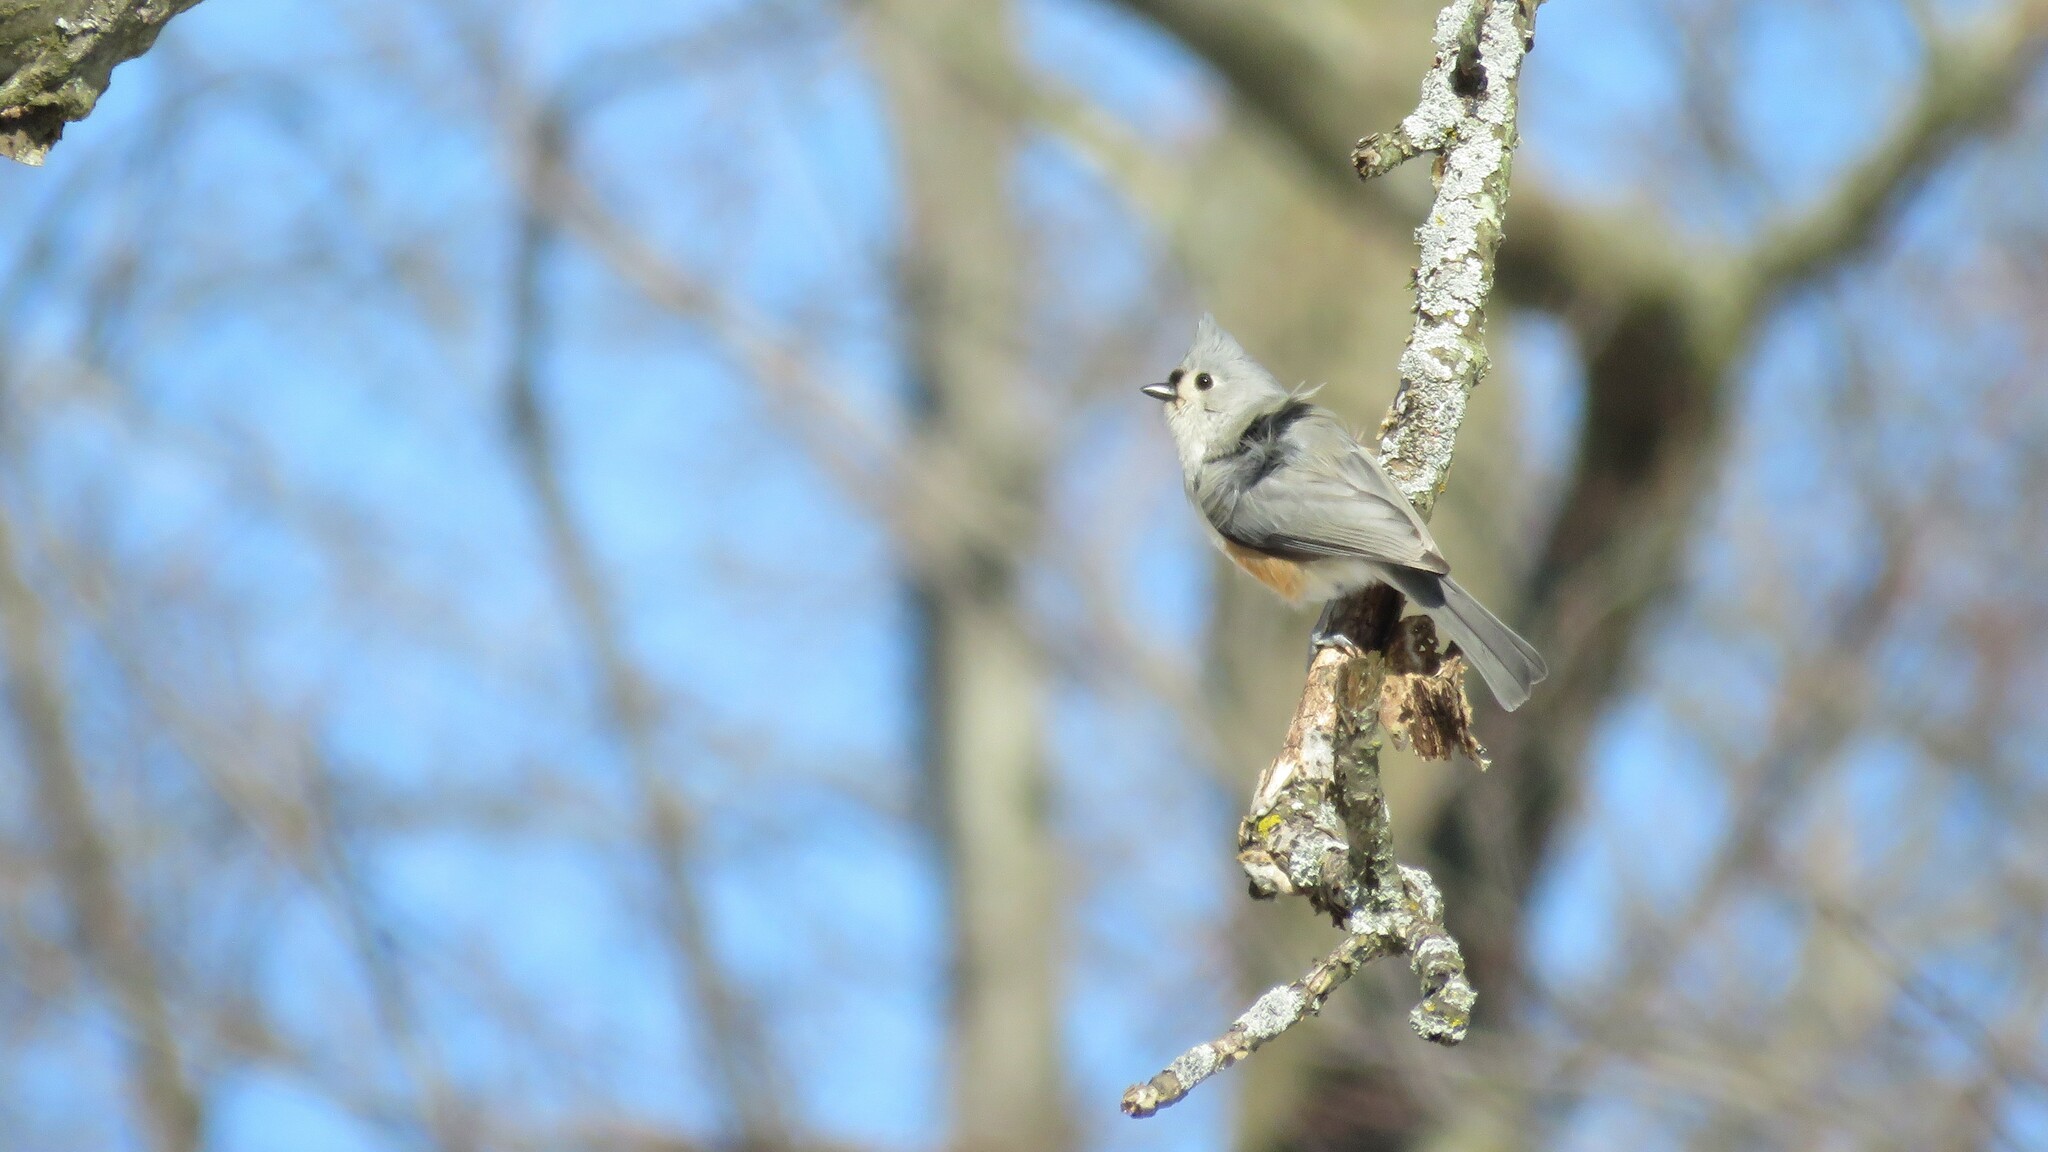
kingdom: Animalia
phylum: Chordata
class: Aves
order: Passeriformes
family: Paridae
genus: Baeolophus
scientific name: Baeolophus bicolor
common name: Tufted titmouse
